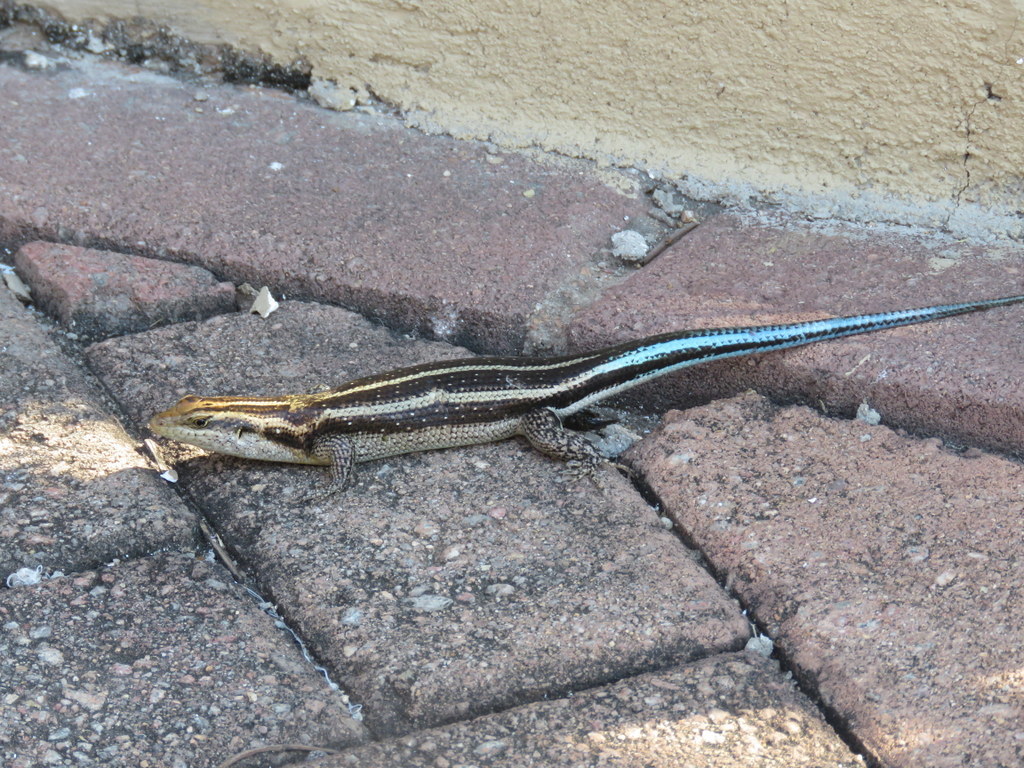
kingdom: Animalia
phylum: Chordata
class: Squamata
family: Scincidae
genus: Trachylepis
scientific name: Trachylepis margaritifera
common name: Rainbow skink
